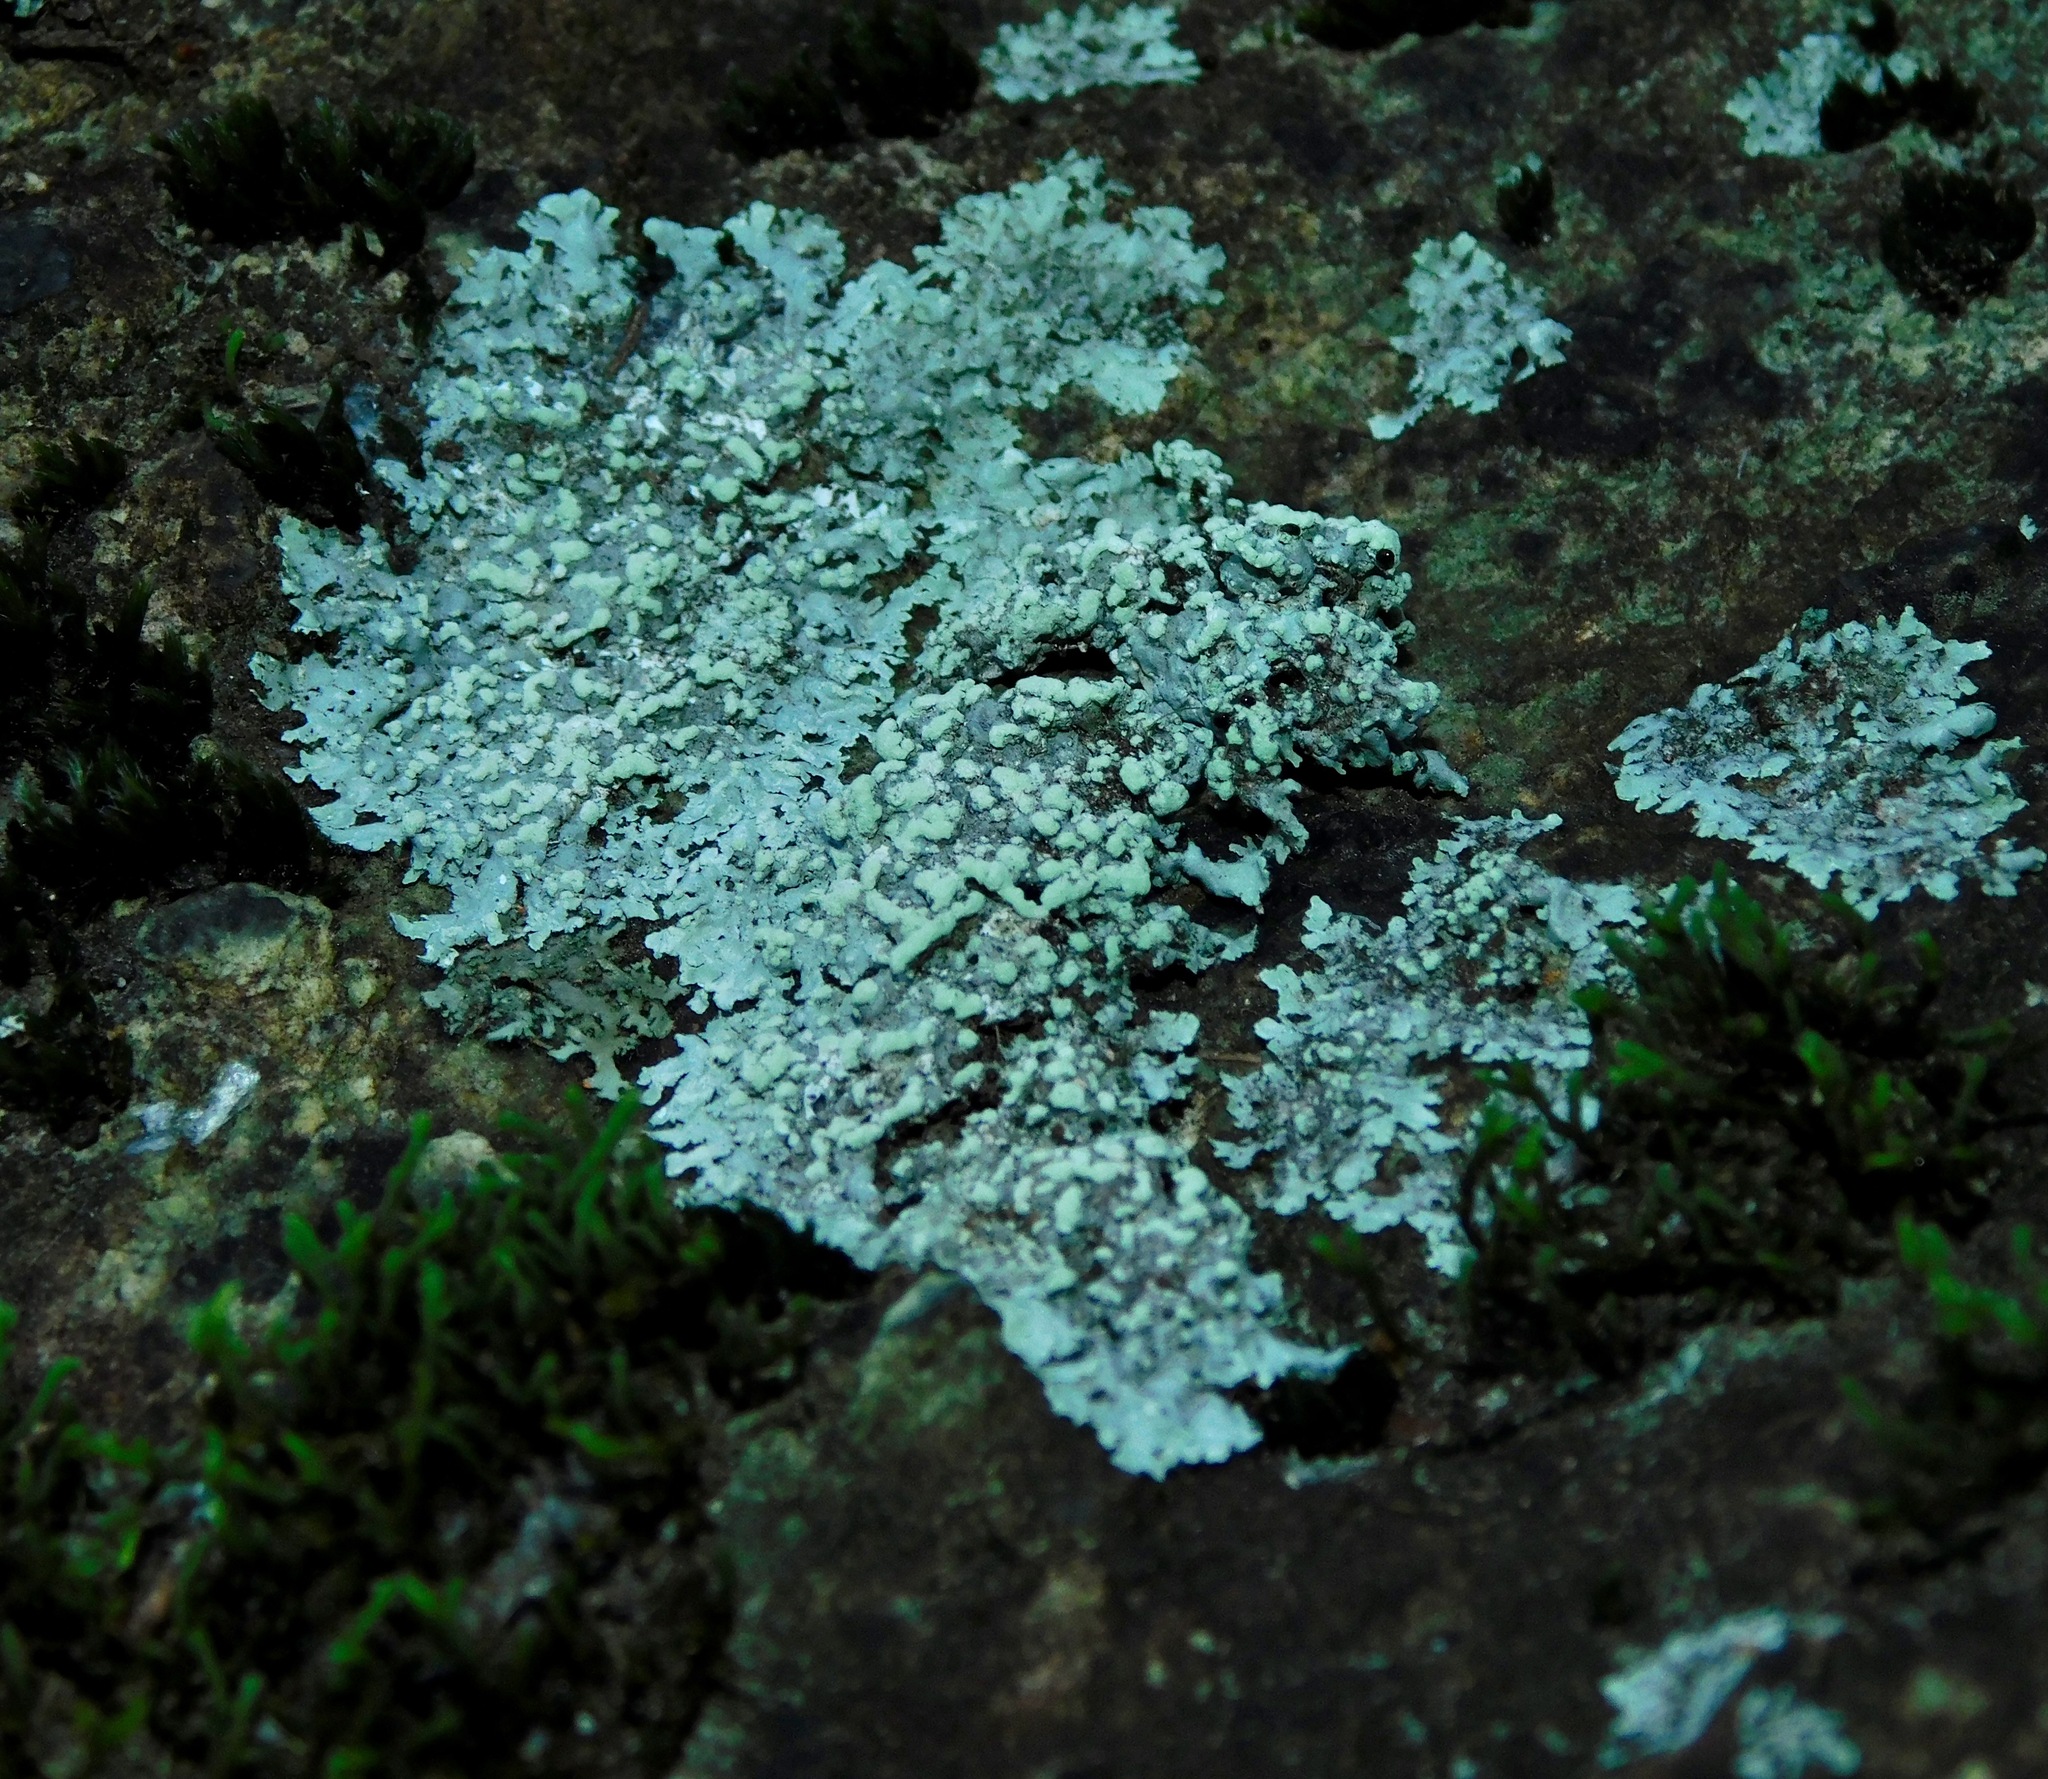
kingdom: Fungi
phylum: Ascomycota
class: Lecanoromycetes
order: Caliciales
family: Physciaceae
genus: Physcia
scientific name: Physcia americana
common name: American rosette lichen
